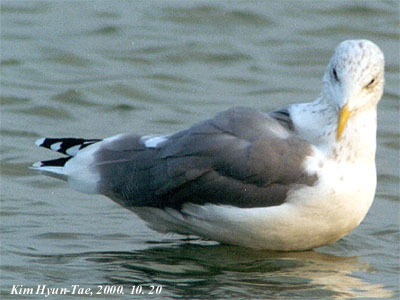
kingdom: Animalia
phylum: Chordata
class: Aves
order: Charadriiformes
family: Laridae
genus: Larus
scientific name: Larus fuscus
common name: Lesser black-backed gull
